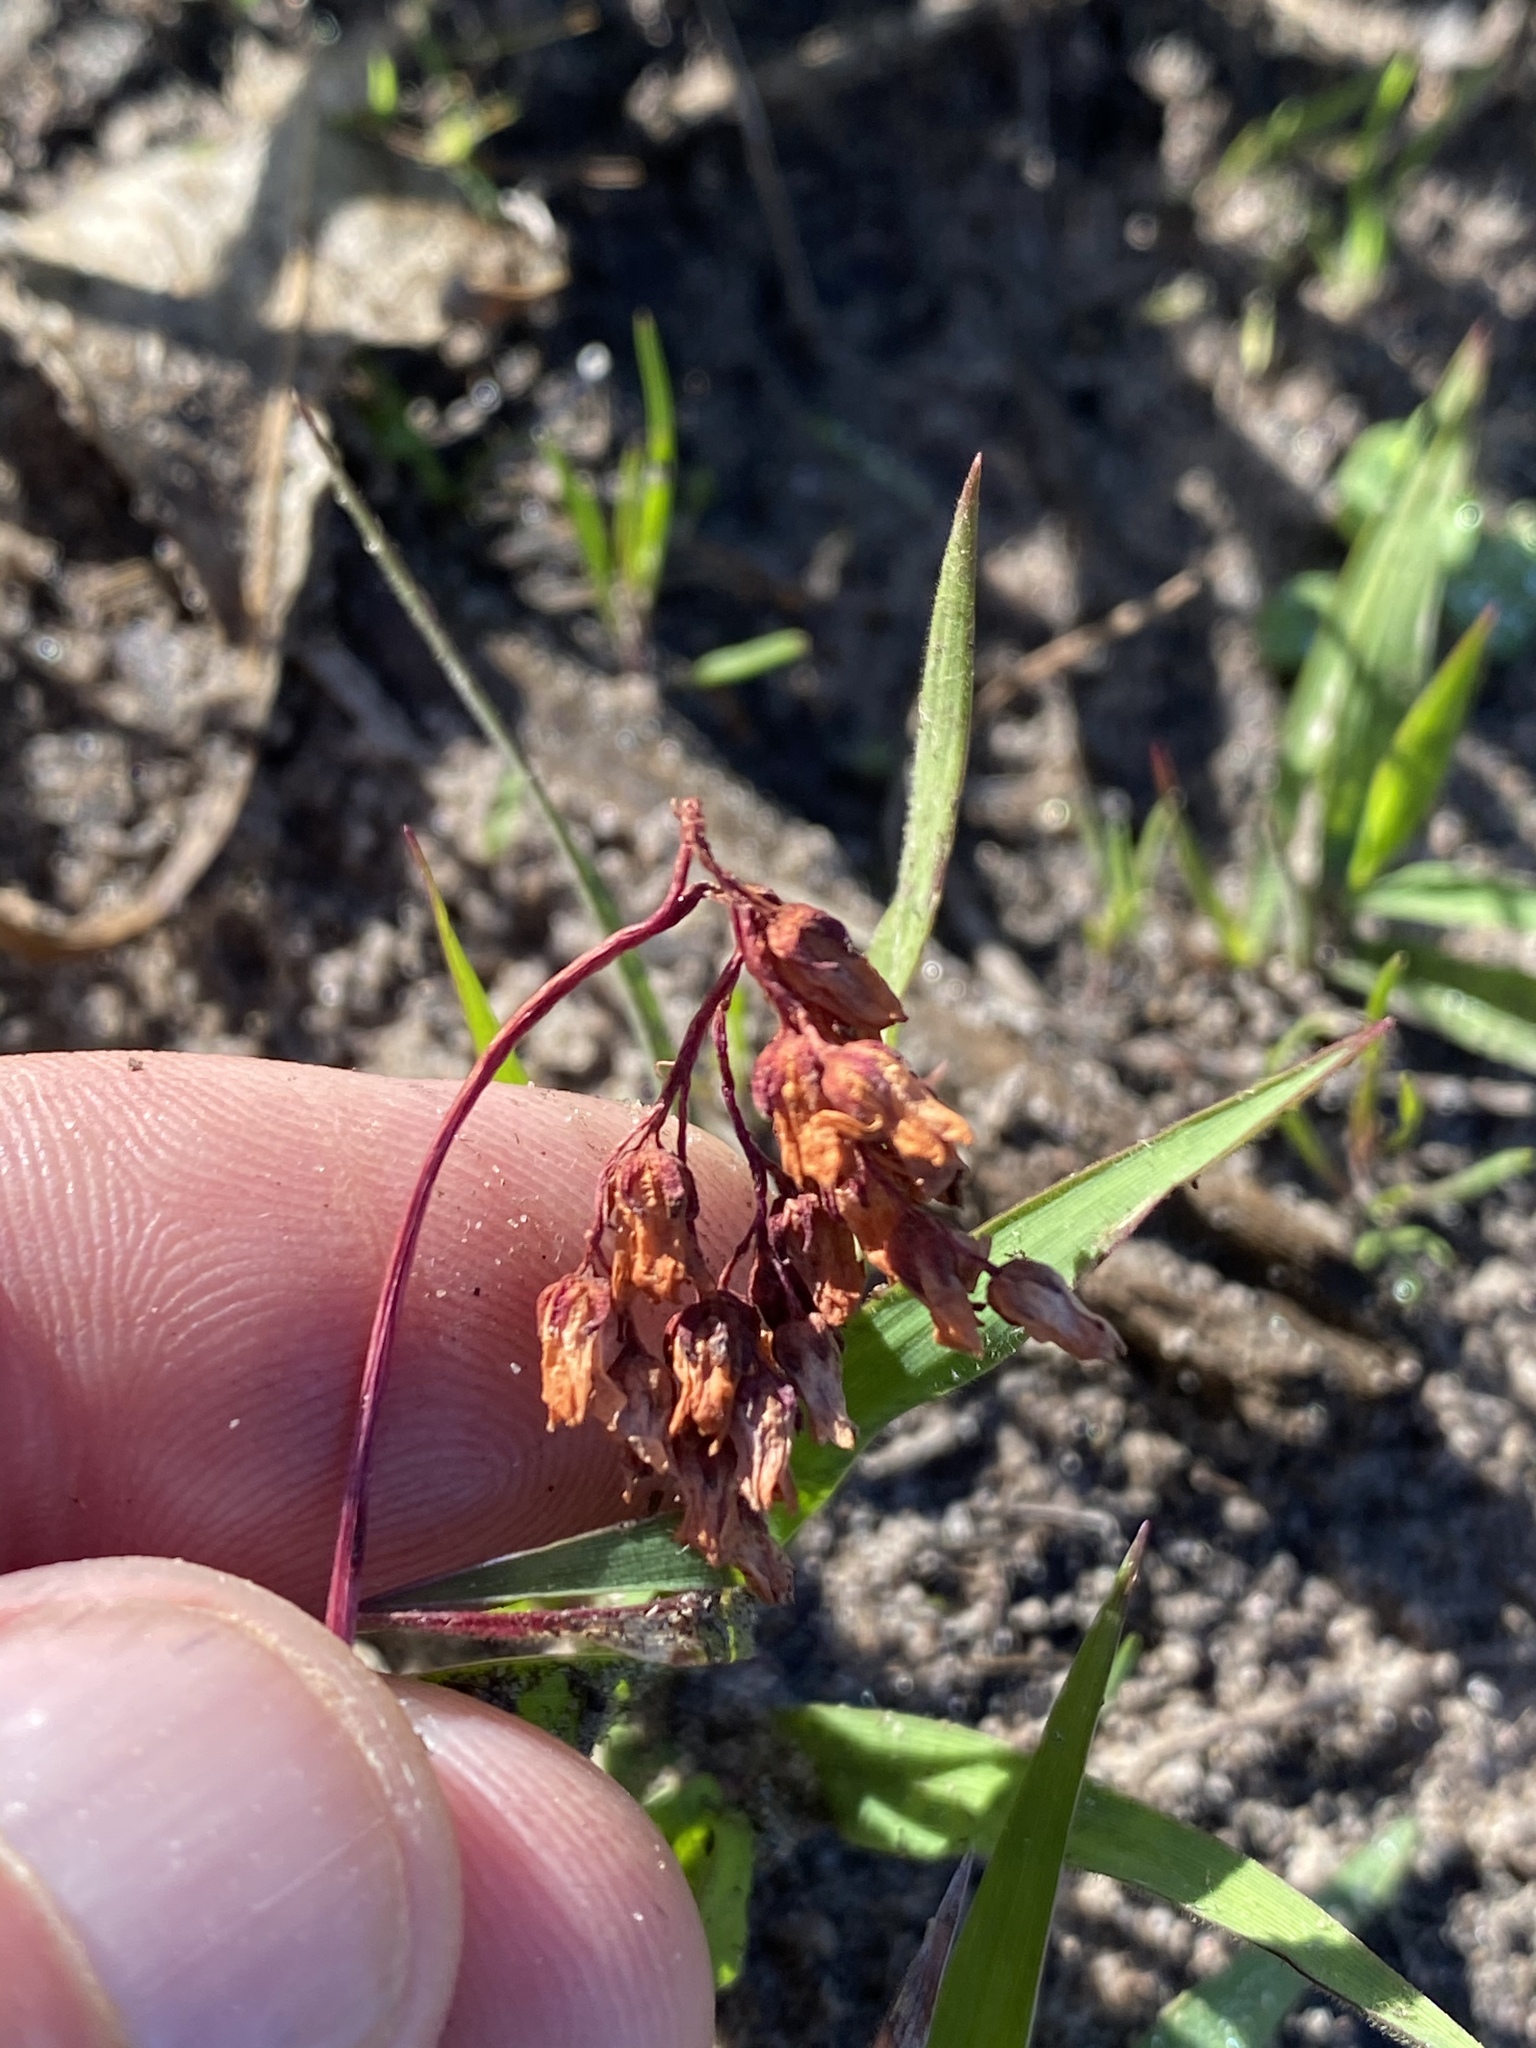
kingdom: Plantae
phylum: Tracheophyta
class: Magnoliopsida
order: Saxifragales
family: Crassulaceae
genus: Crassula
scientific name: Crassula saxifraga
